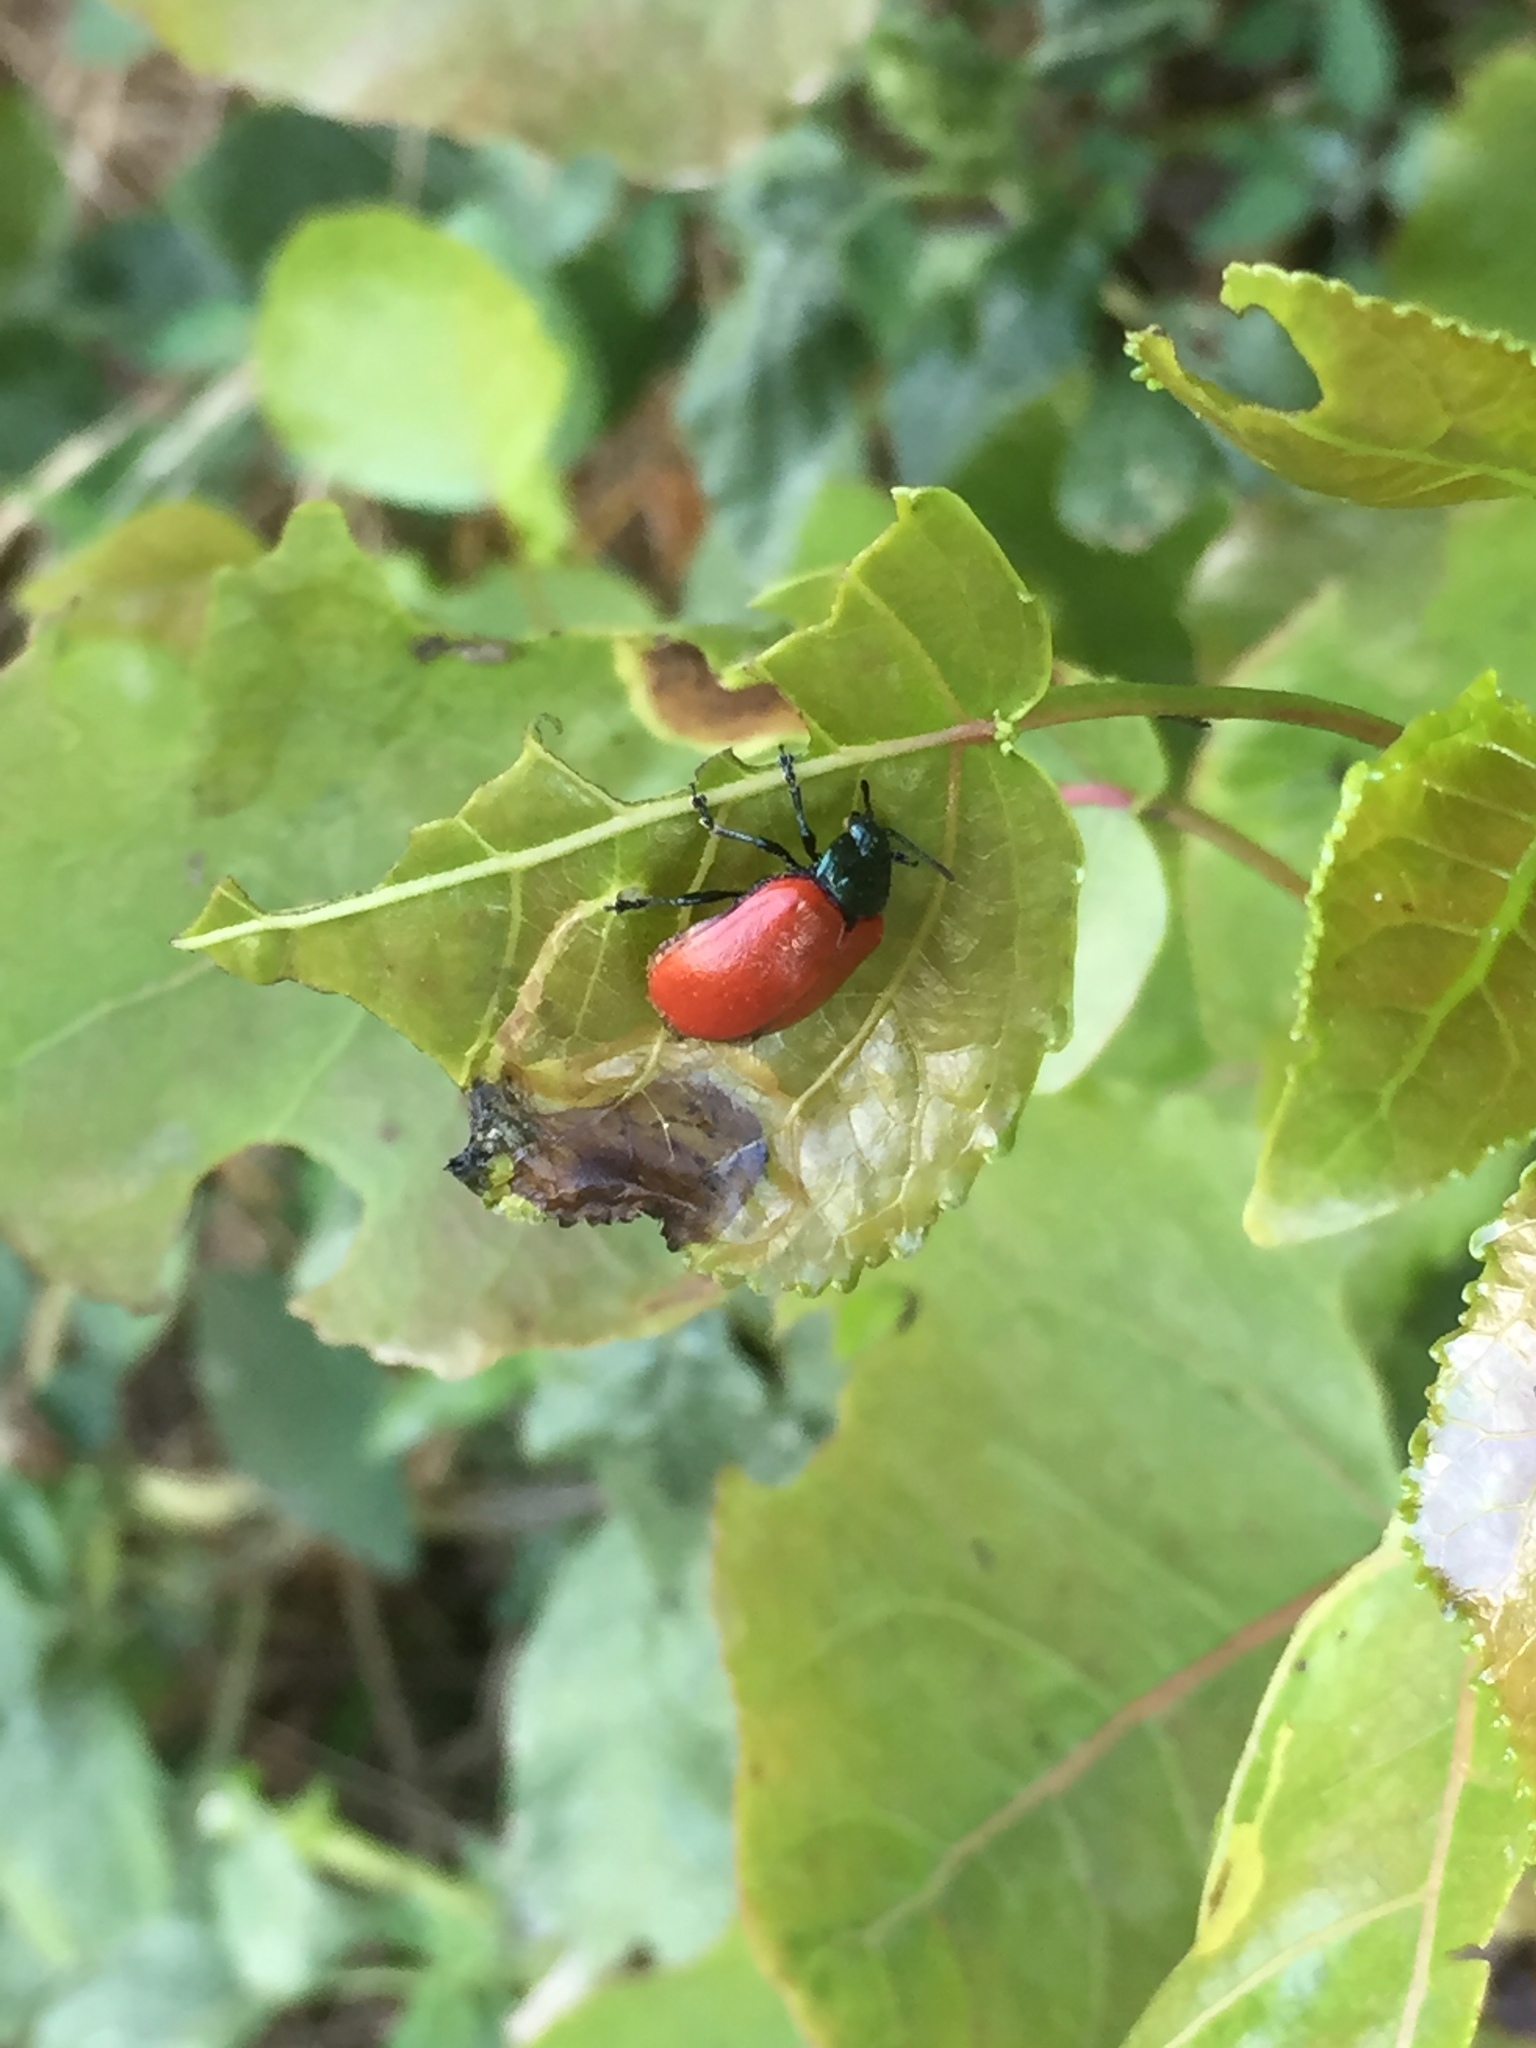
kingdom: Animalia
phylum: Arthropoda
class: Insecta
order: Coleoptera
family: Chrysomelidae
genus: Chrysomela
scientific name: Chrysomela populi
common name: Red poplar leaf beetle
